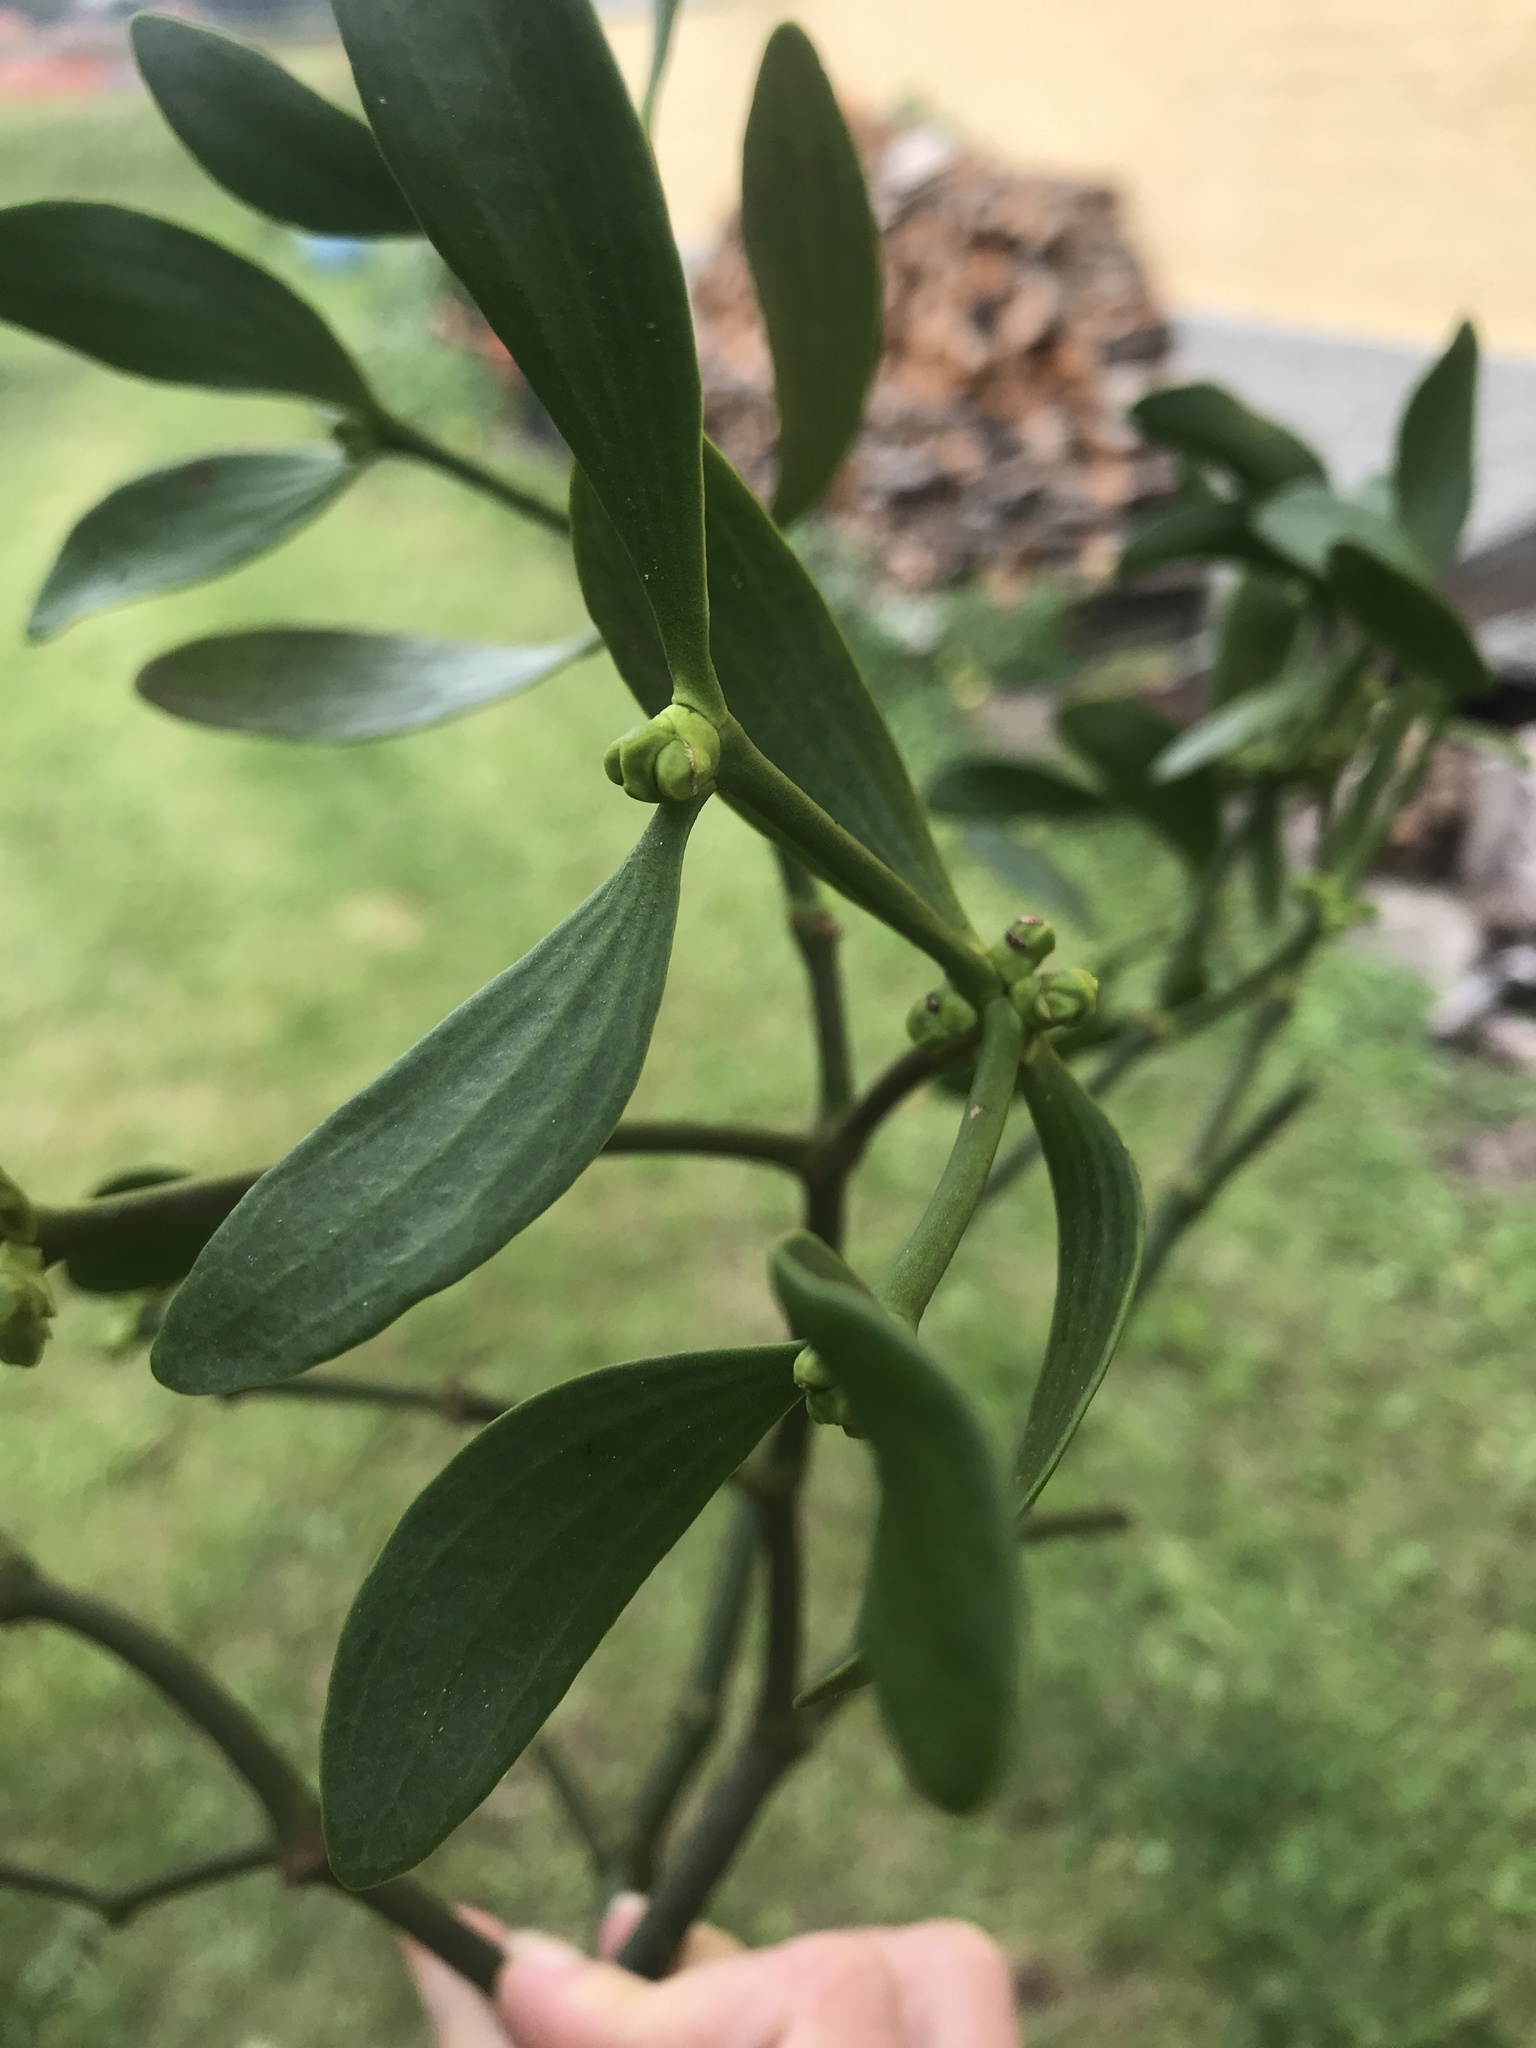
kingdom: Plantae
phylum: Tracheophyta
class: Magnoliopsida
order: Santalales
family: Viscaceae
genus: Viscum
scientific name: Viscum album
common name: Mistletoe
